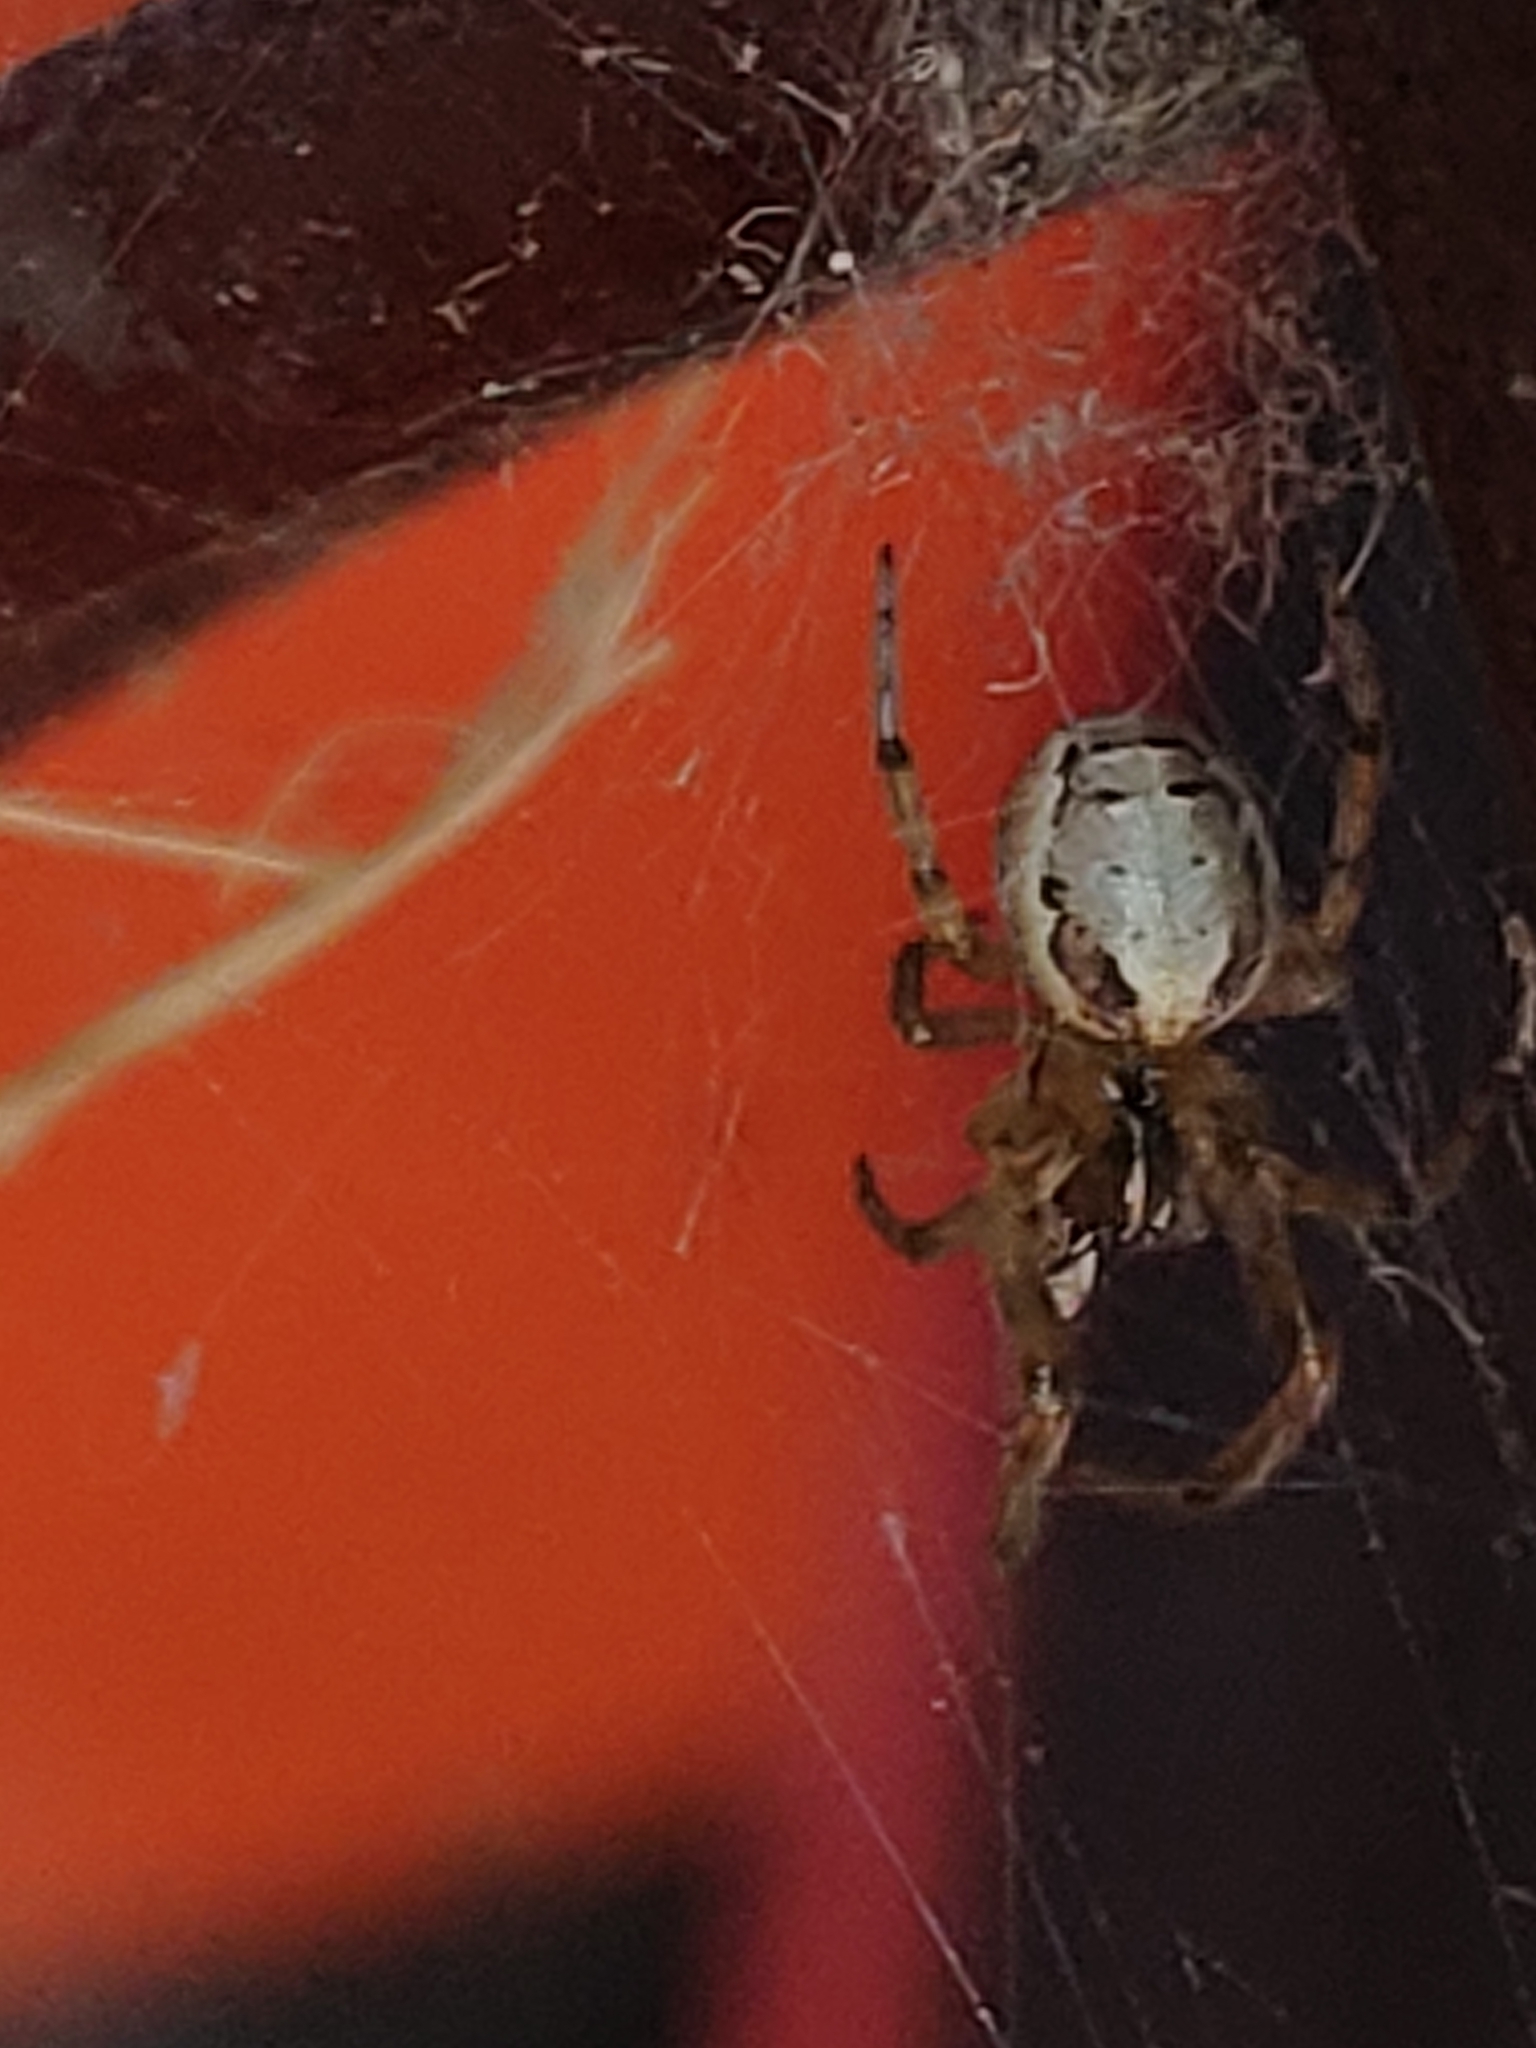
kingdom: Animalia
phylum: Arthropoda
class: Arachnida
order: Araneae
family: Araneidae
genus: Zygiella
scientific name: Zygiella x-notata
